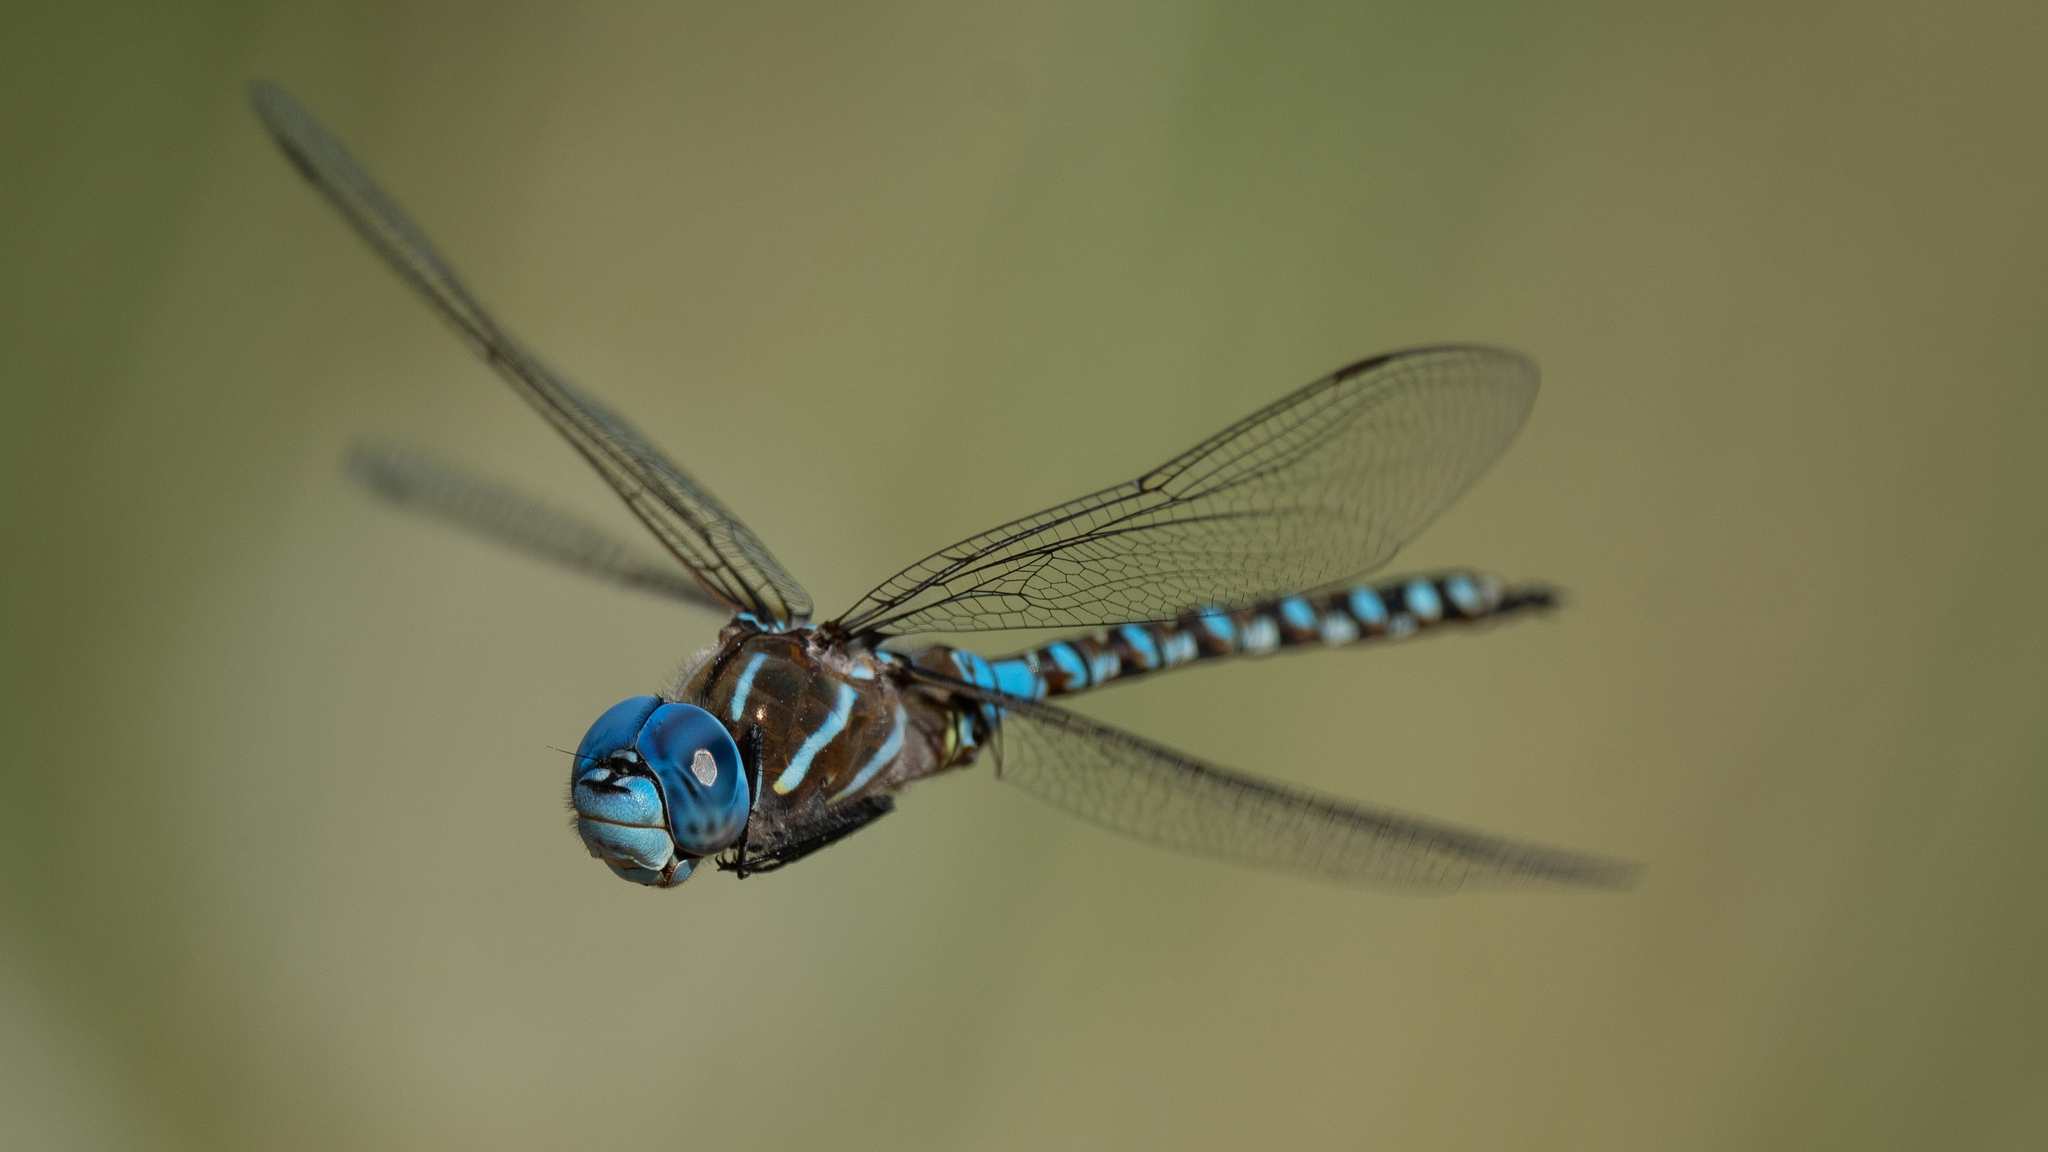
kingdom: Animalia
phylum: Arthropoda
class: Insecta
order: Odonata
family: Aeshnidae
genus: Rhionaeschna
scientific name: Rhionaeschna multicolor
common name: Blue-eyed darner
